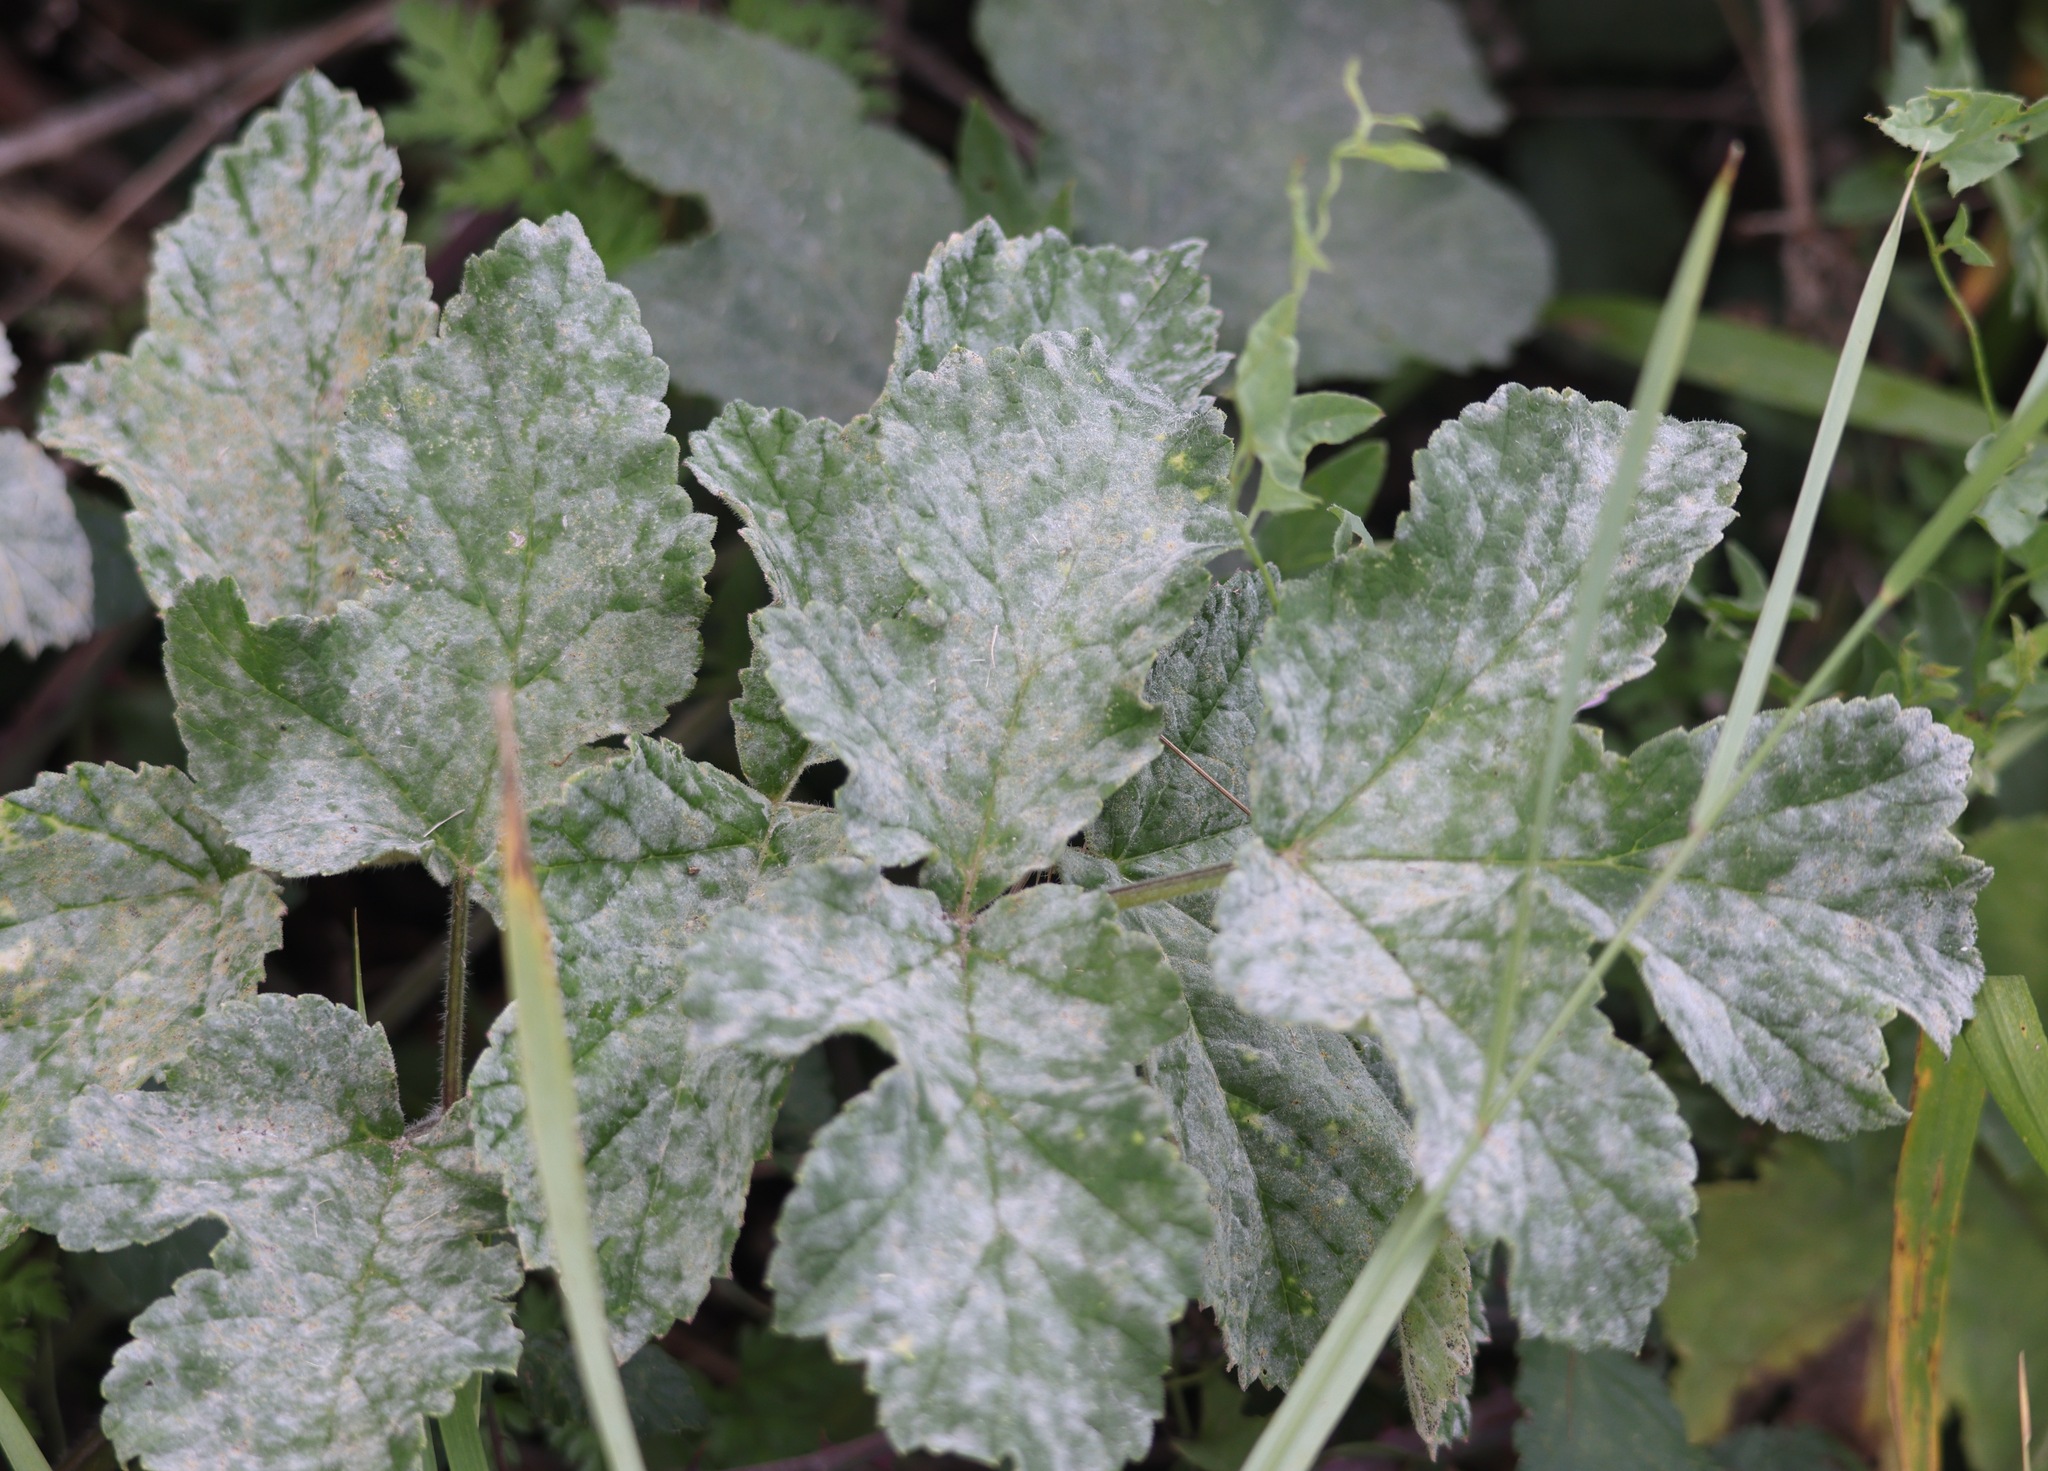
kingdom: Fungi
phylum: Ascomycota
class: Leotiomycetes
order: Helotiales
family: Erysiphaceae
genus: Erysiphe
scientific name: Erysiphe heraclei
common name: Umbellifer mildew
